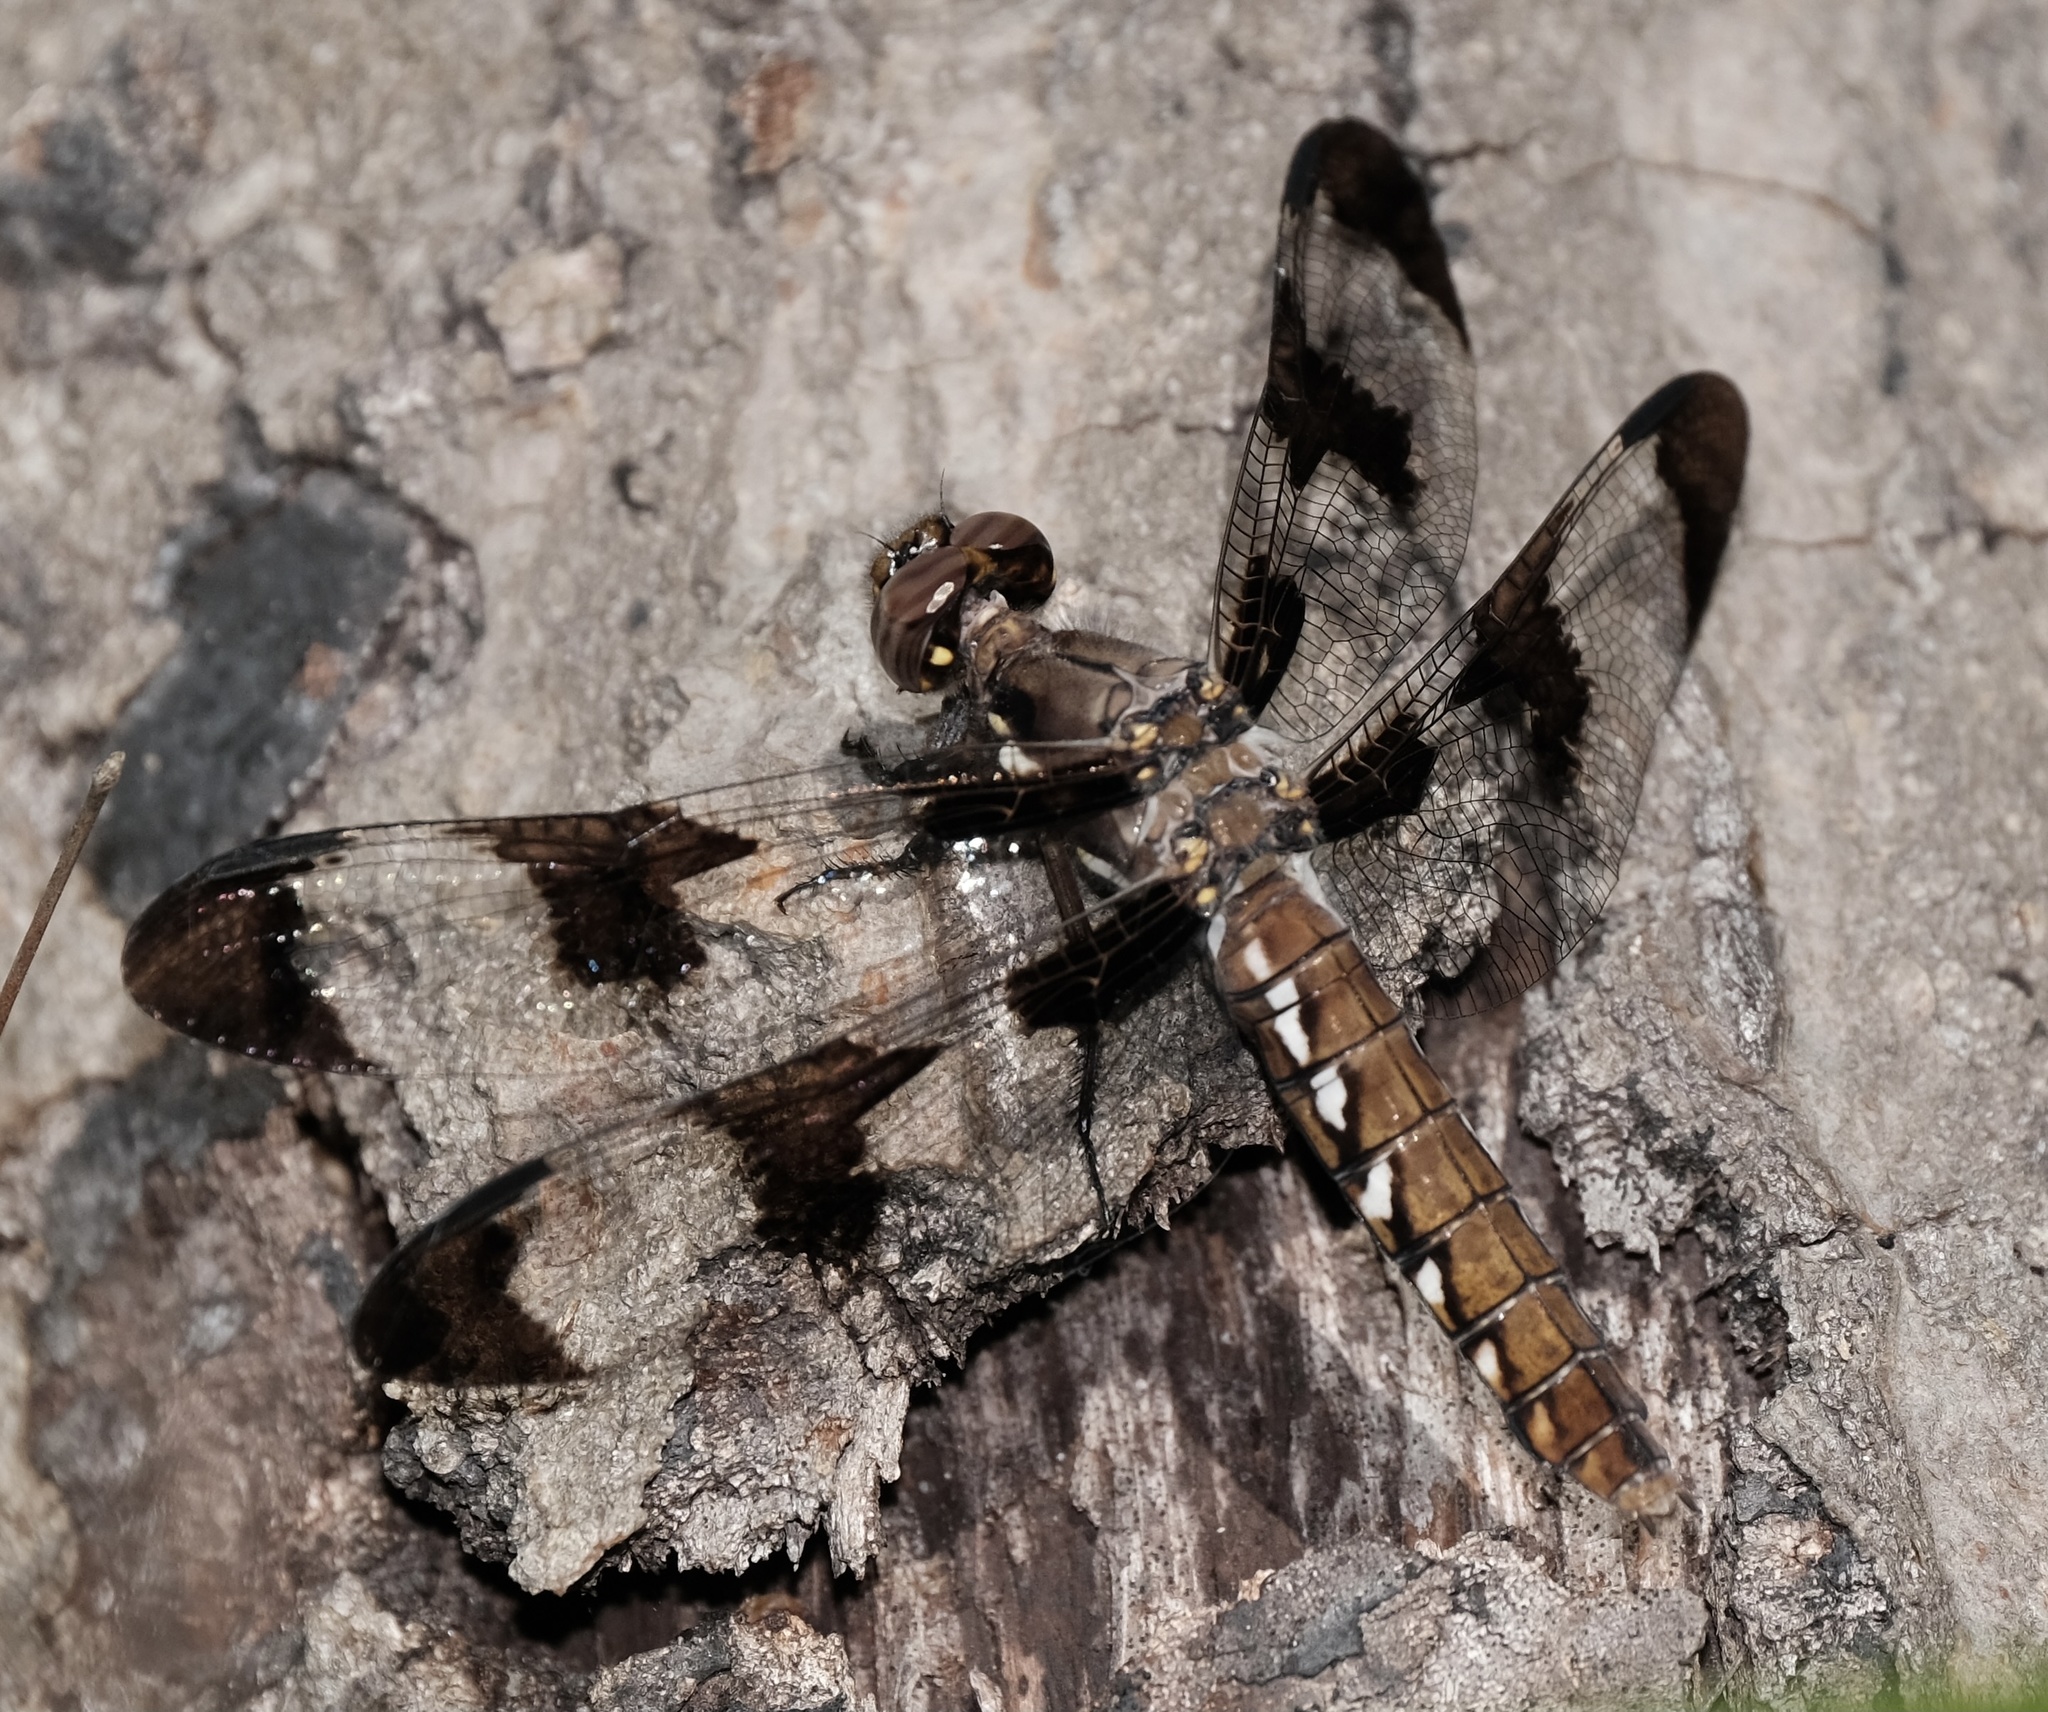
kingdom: Animalia
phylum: Arthropoda
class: Insecta
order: Odonata
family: Libellulidae
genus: Plathemis
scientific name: Plathemis lydia
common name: Common whitetail
